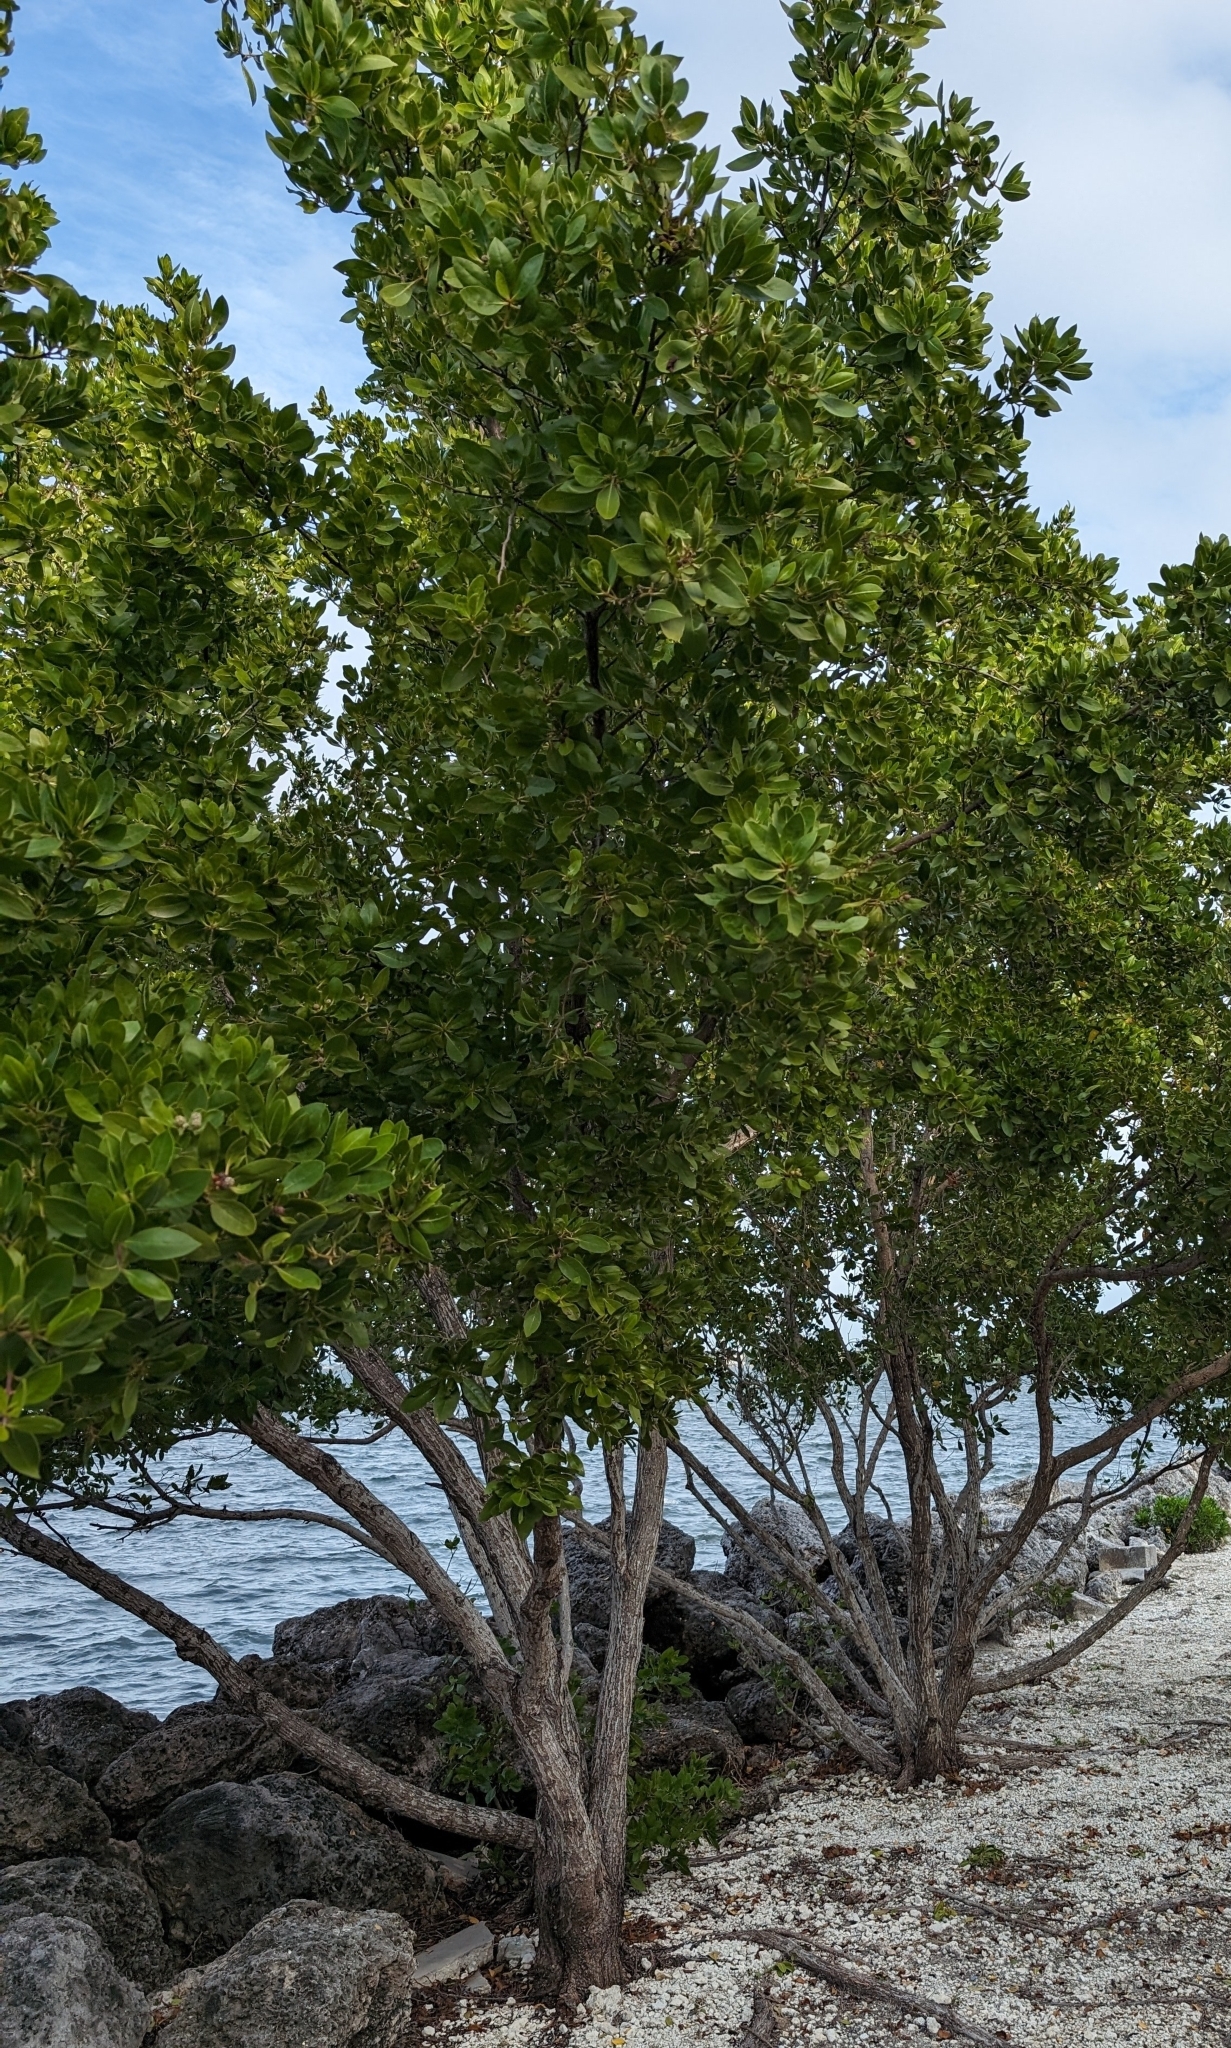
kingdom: Plantae
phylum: Tracheophyta
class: Magnoliopsida
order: Myrtales
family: Combretaceae
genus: Conocarpus
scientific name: Conocarpus erectus
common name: Button mangrove
